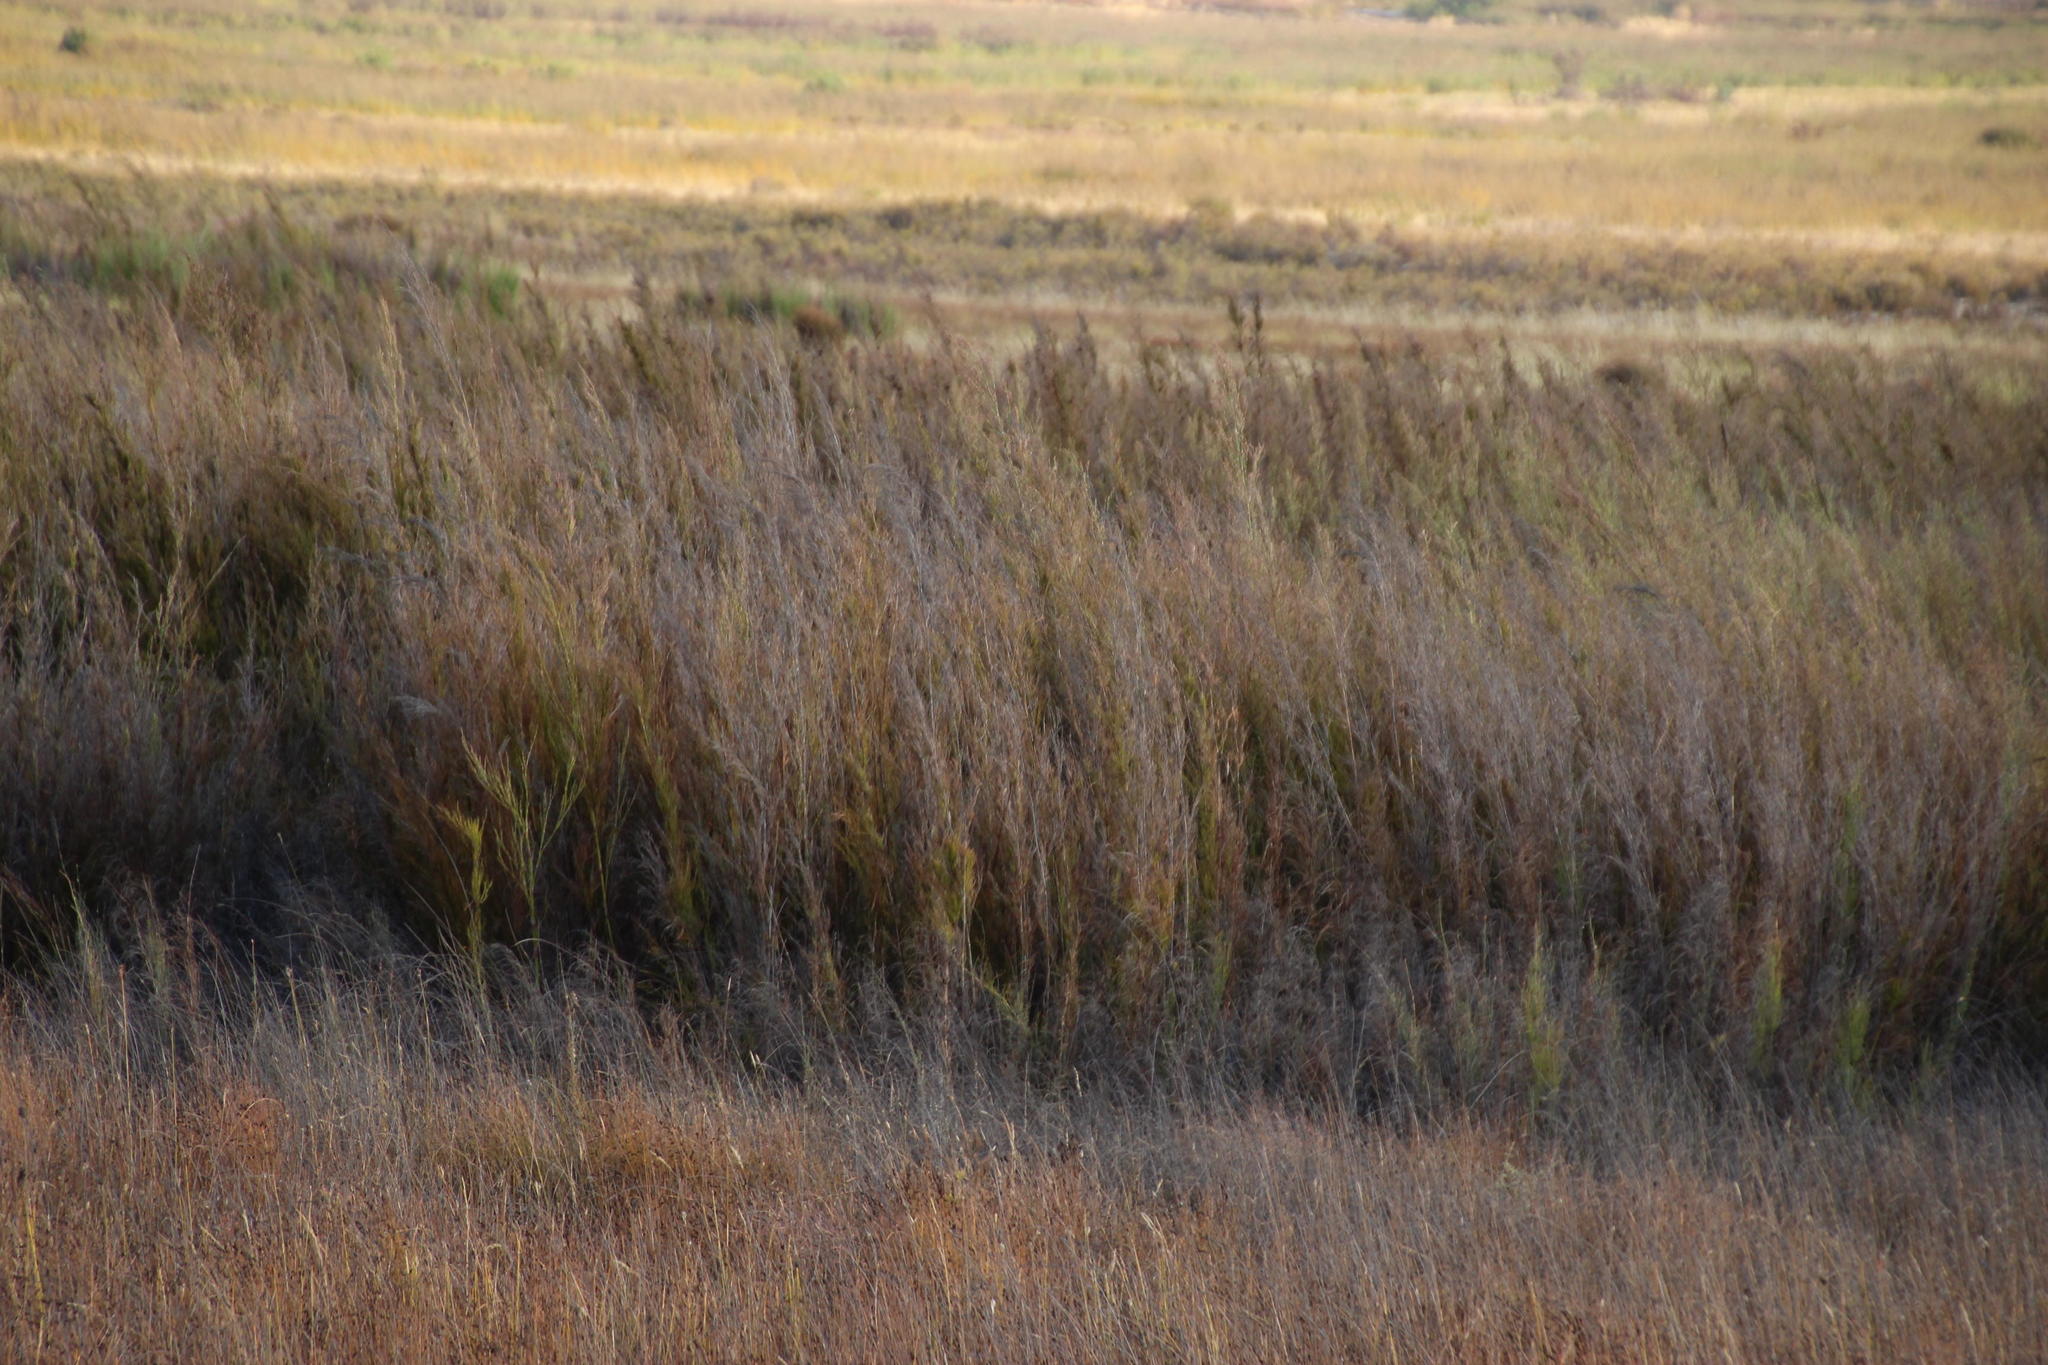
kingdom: Plantae
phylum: Tracheophyta
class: Liliopsida
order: Poales
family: Restionaceae
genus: Rhodocoma
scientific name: Rhodocoma capensis
